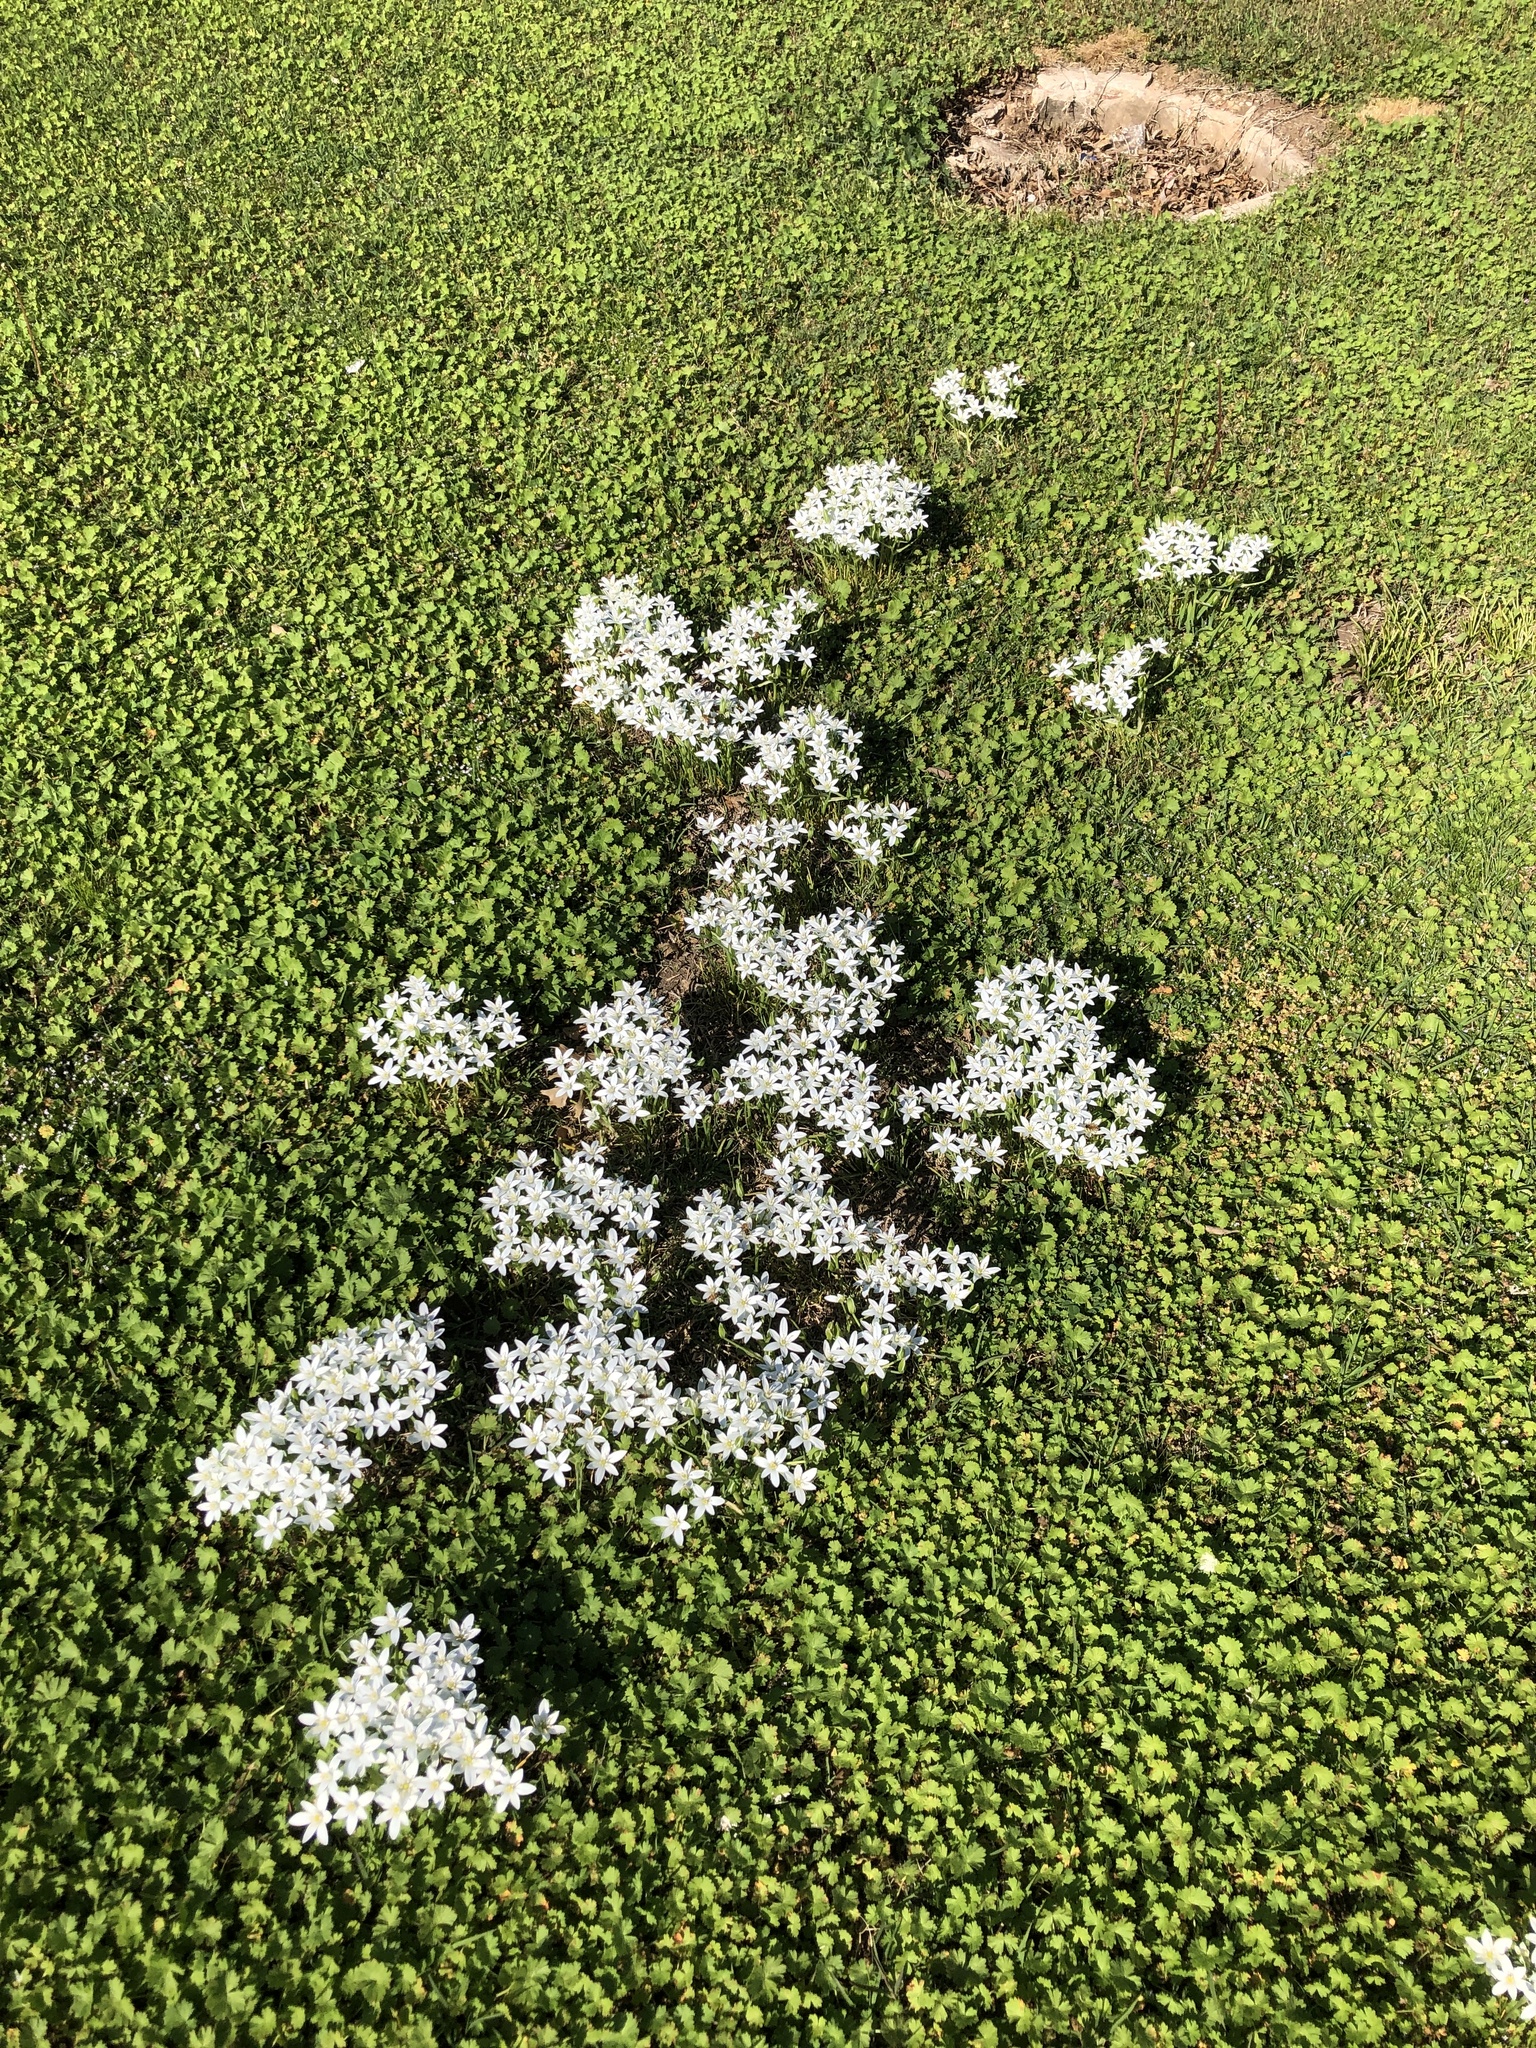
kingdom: Plantae
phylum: Tracheophyta
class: Liliopsida
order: Asparagales
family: Asparagaceae
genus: Ornithogalum
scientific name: Ornithogalum umbellatum
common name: Garden star-of-bethlehem
